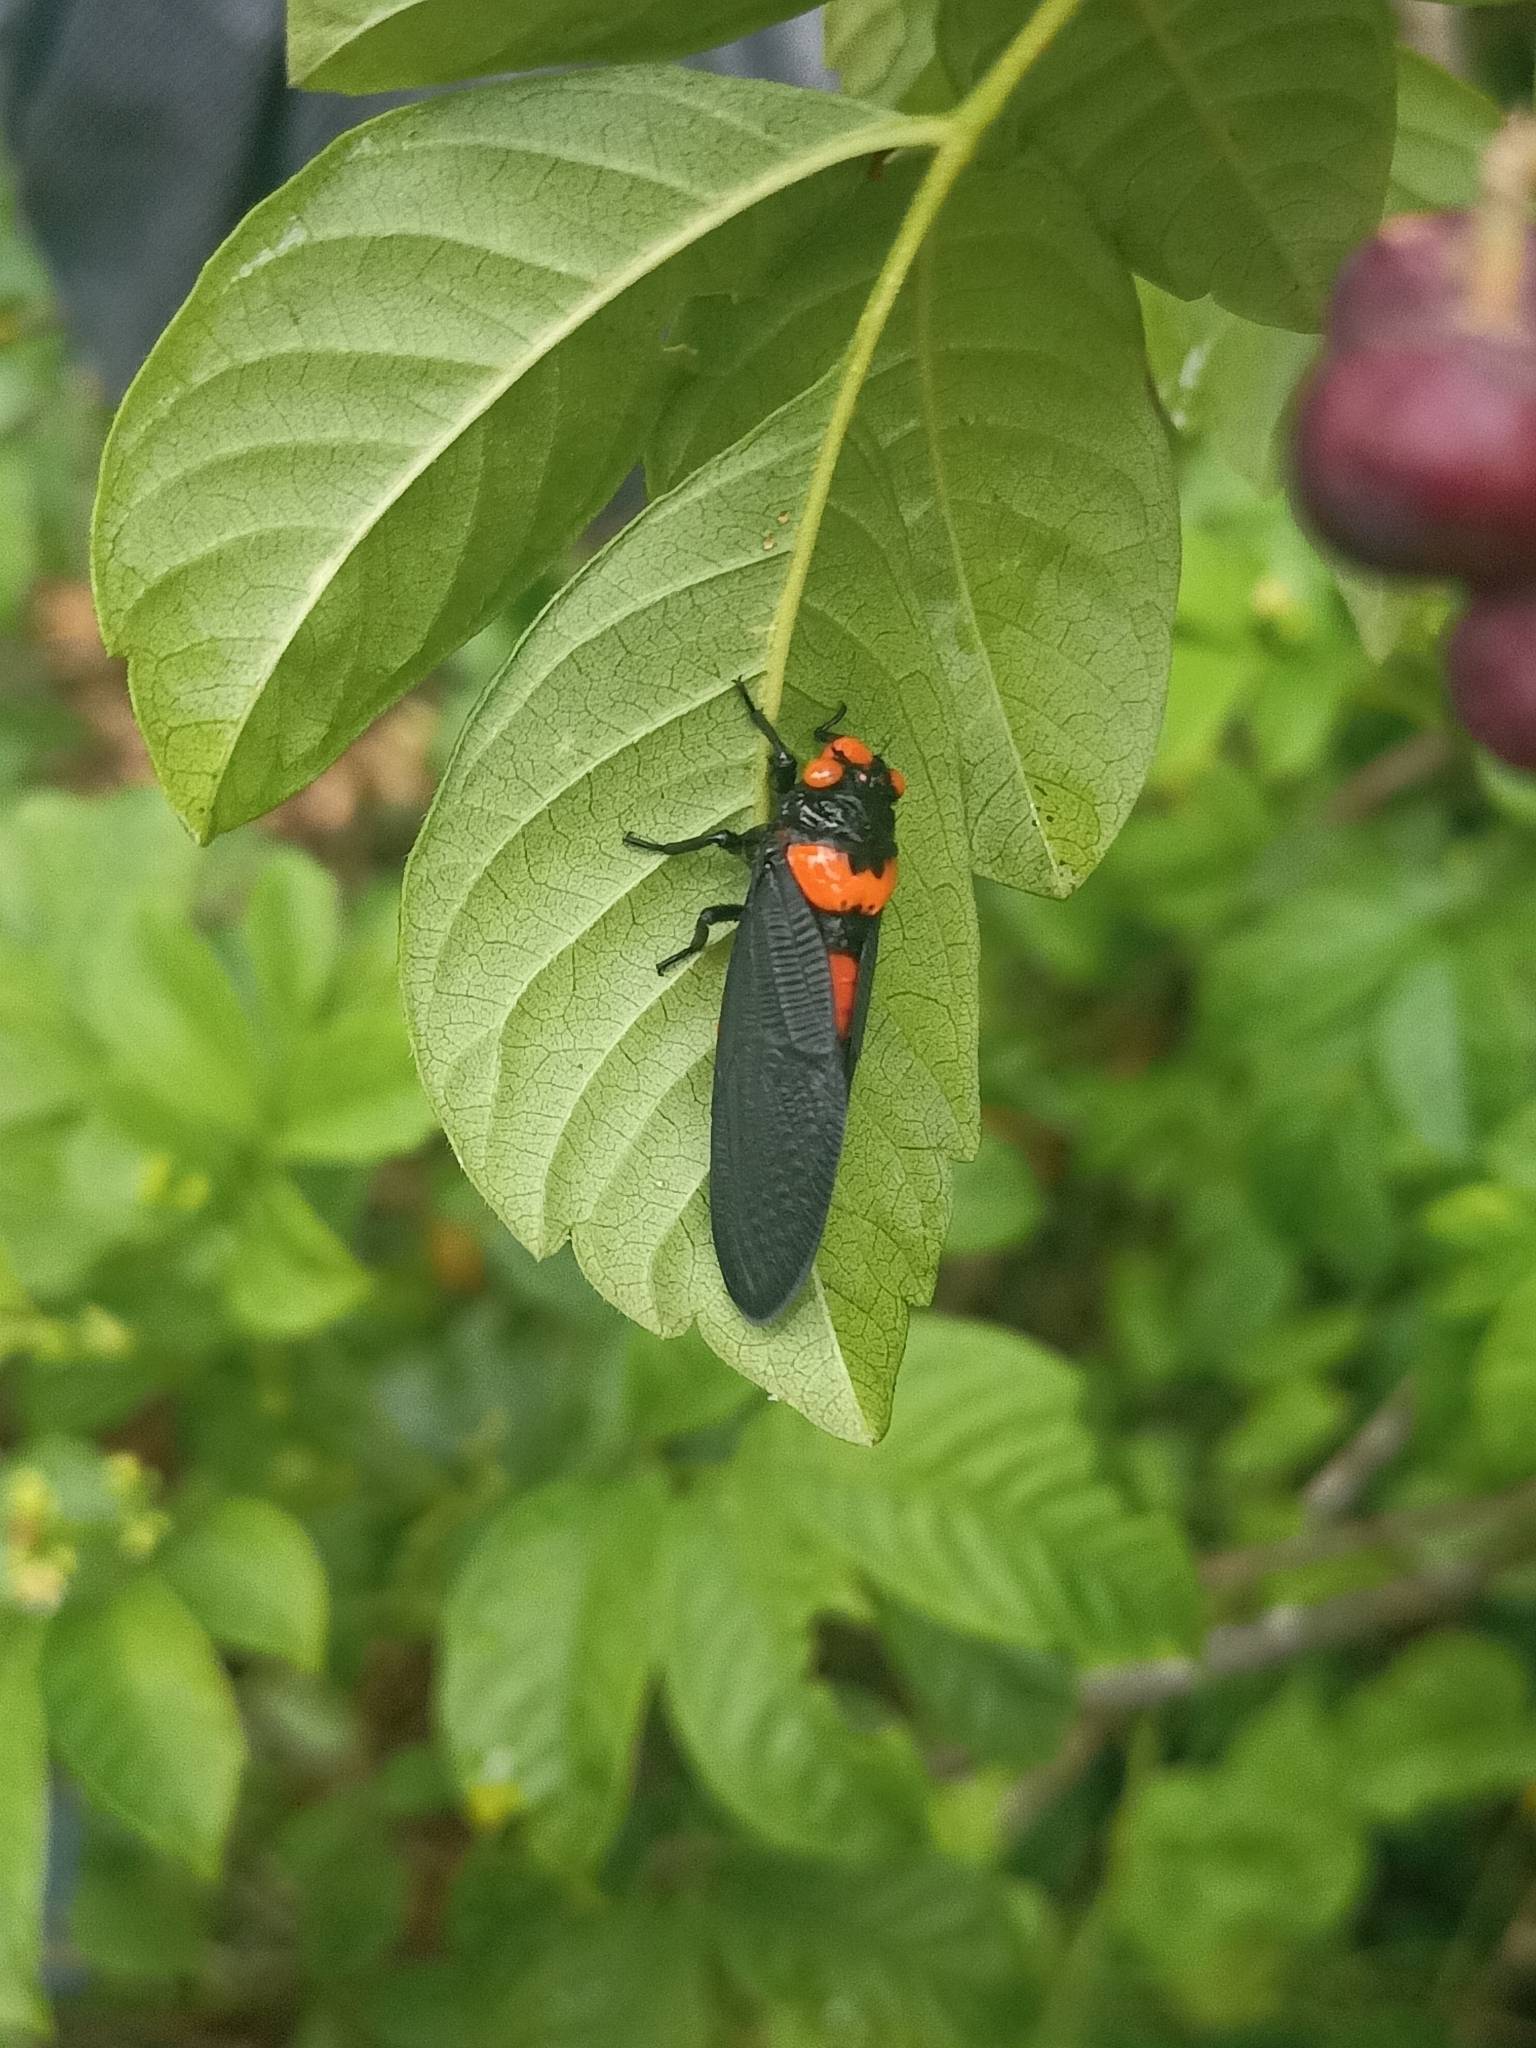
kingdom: Animalia
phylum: Arthropoda
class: Insecta
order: Hemiptera
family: Cicadidae
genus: Huechys
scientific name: Huechys beata
